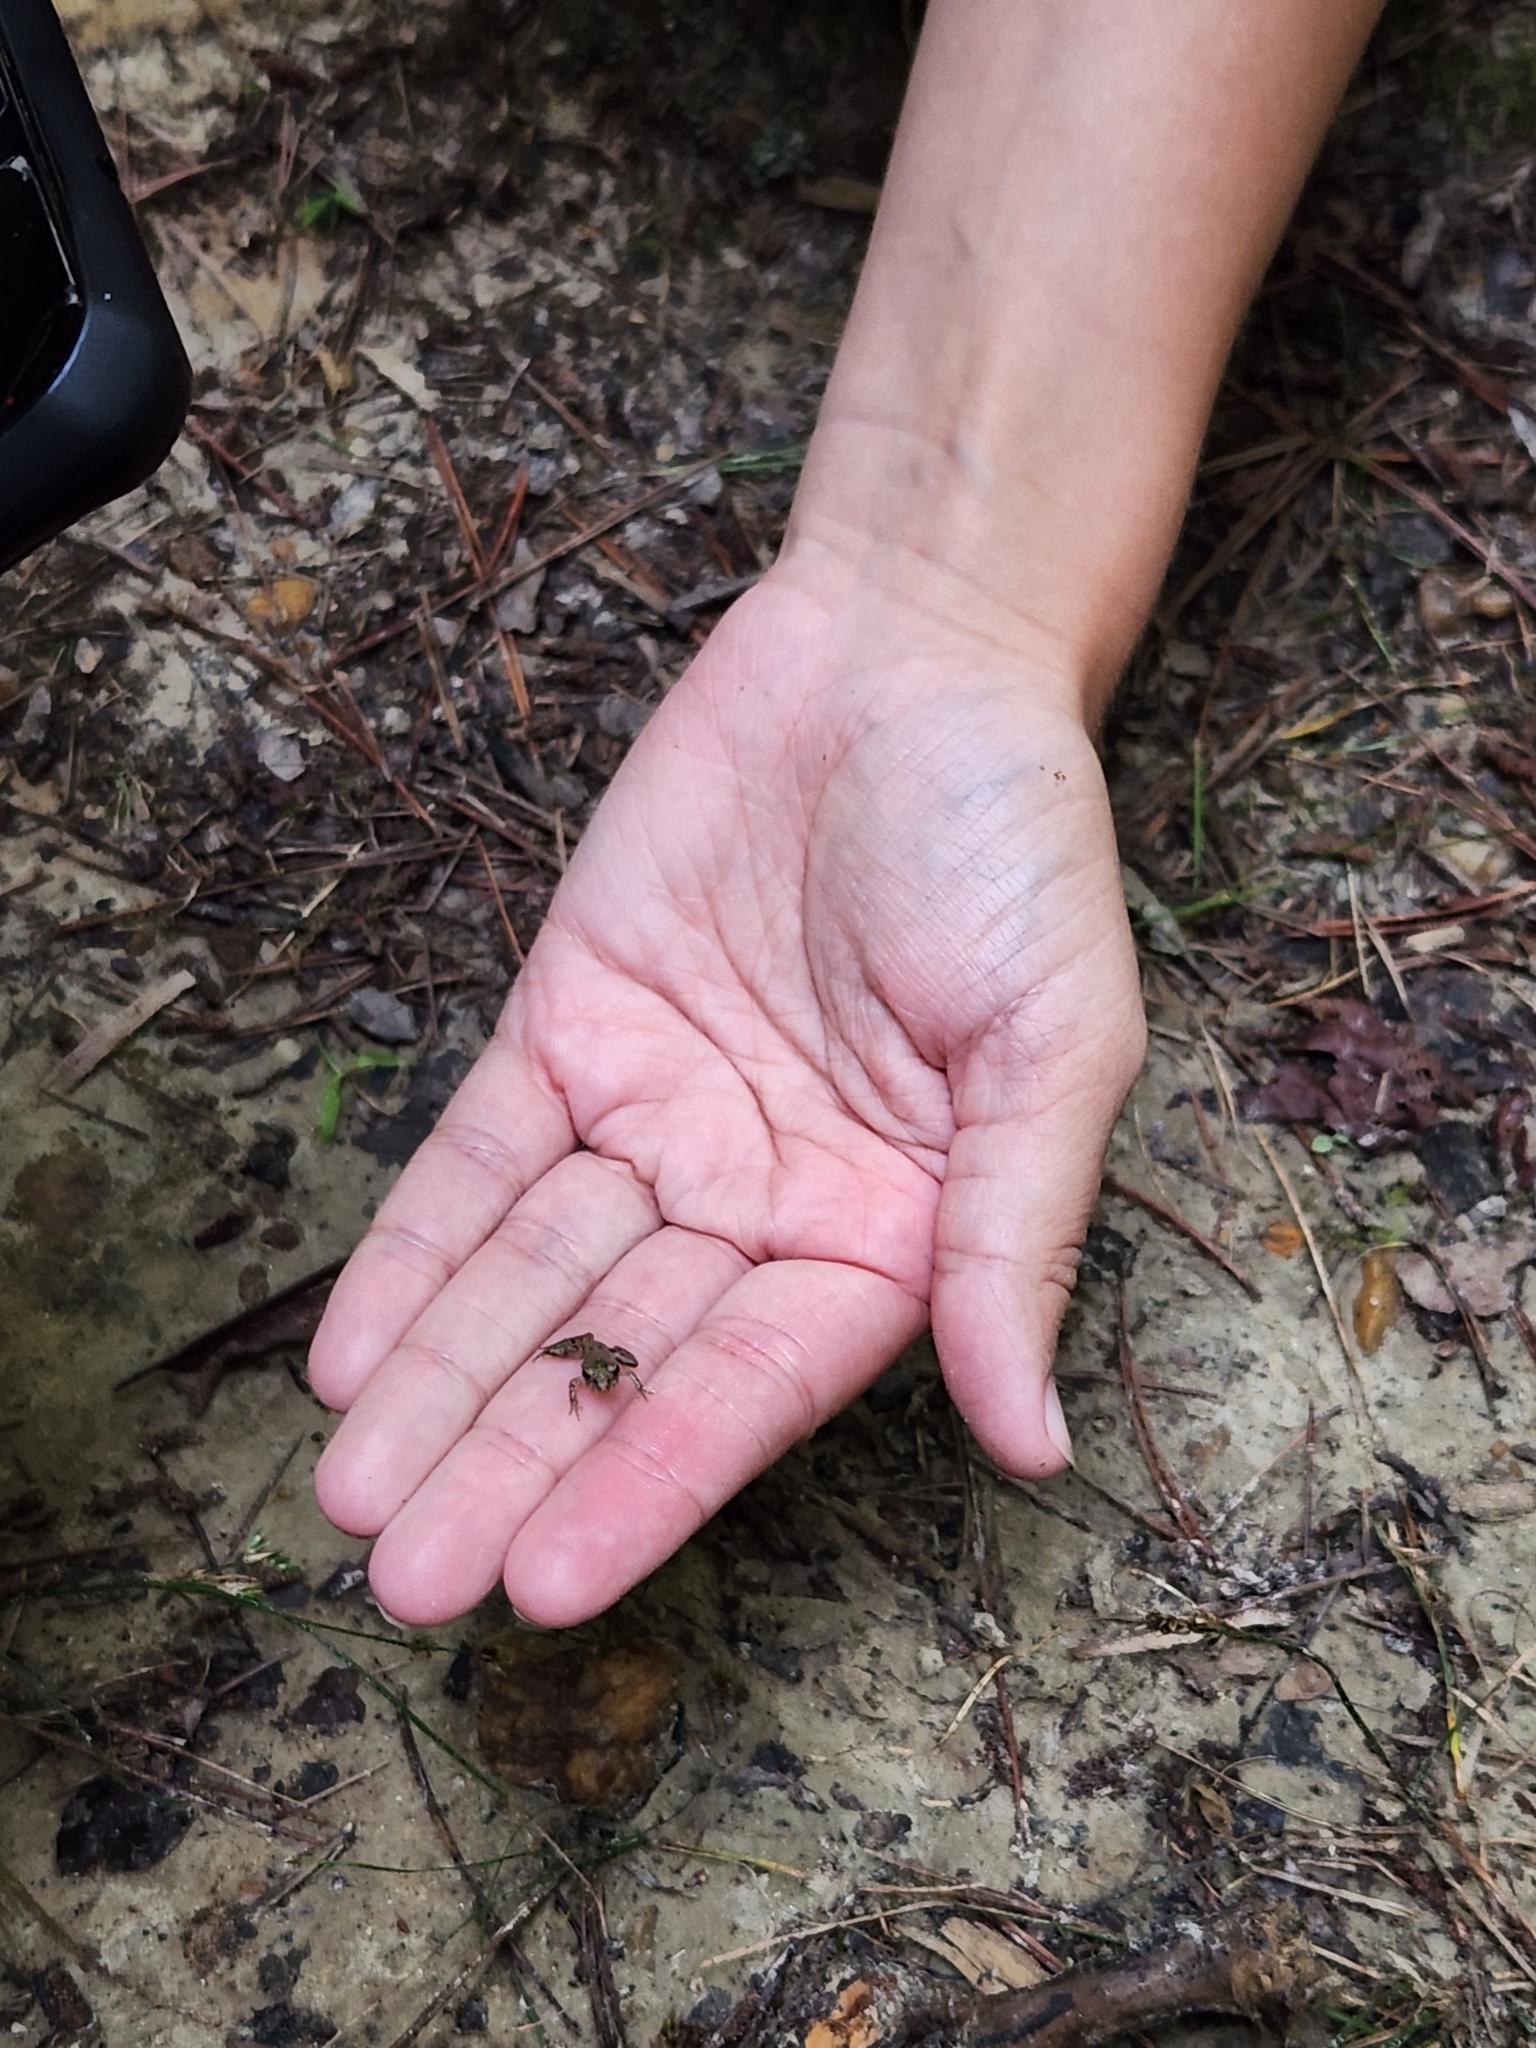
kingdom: Animalia
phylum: Chordata
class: Amphibia
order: Anura
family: Hylidae
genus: Acris
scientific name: Acris crepitans
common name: Northern cricket frog
